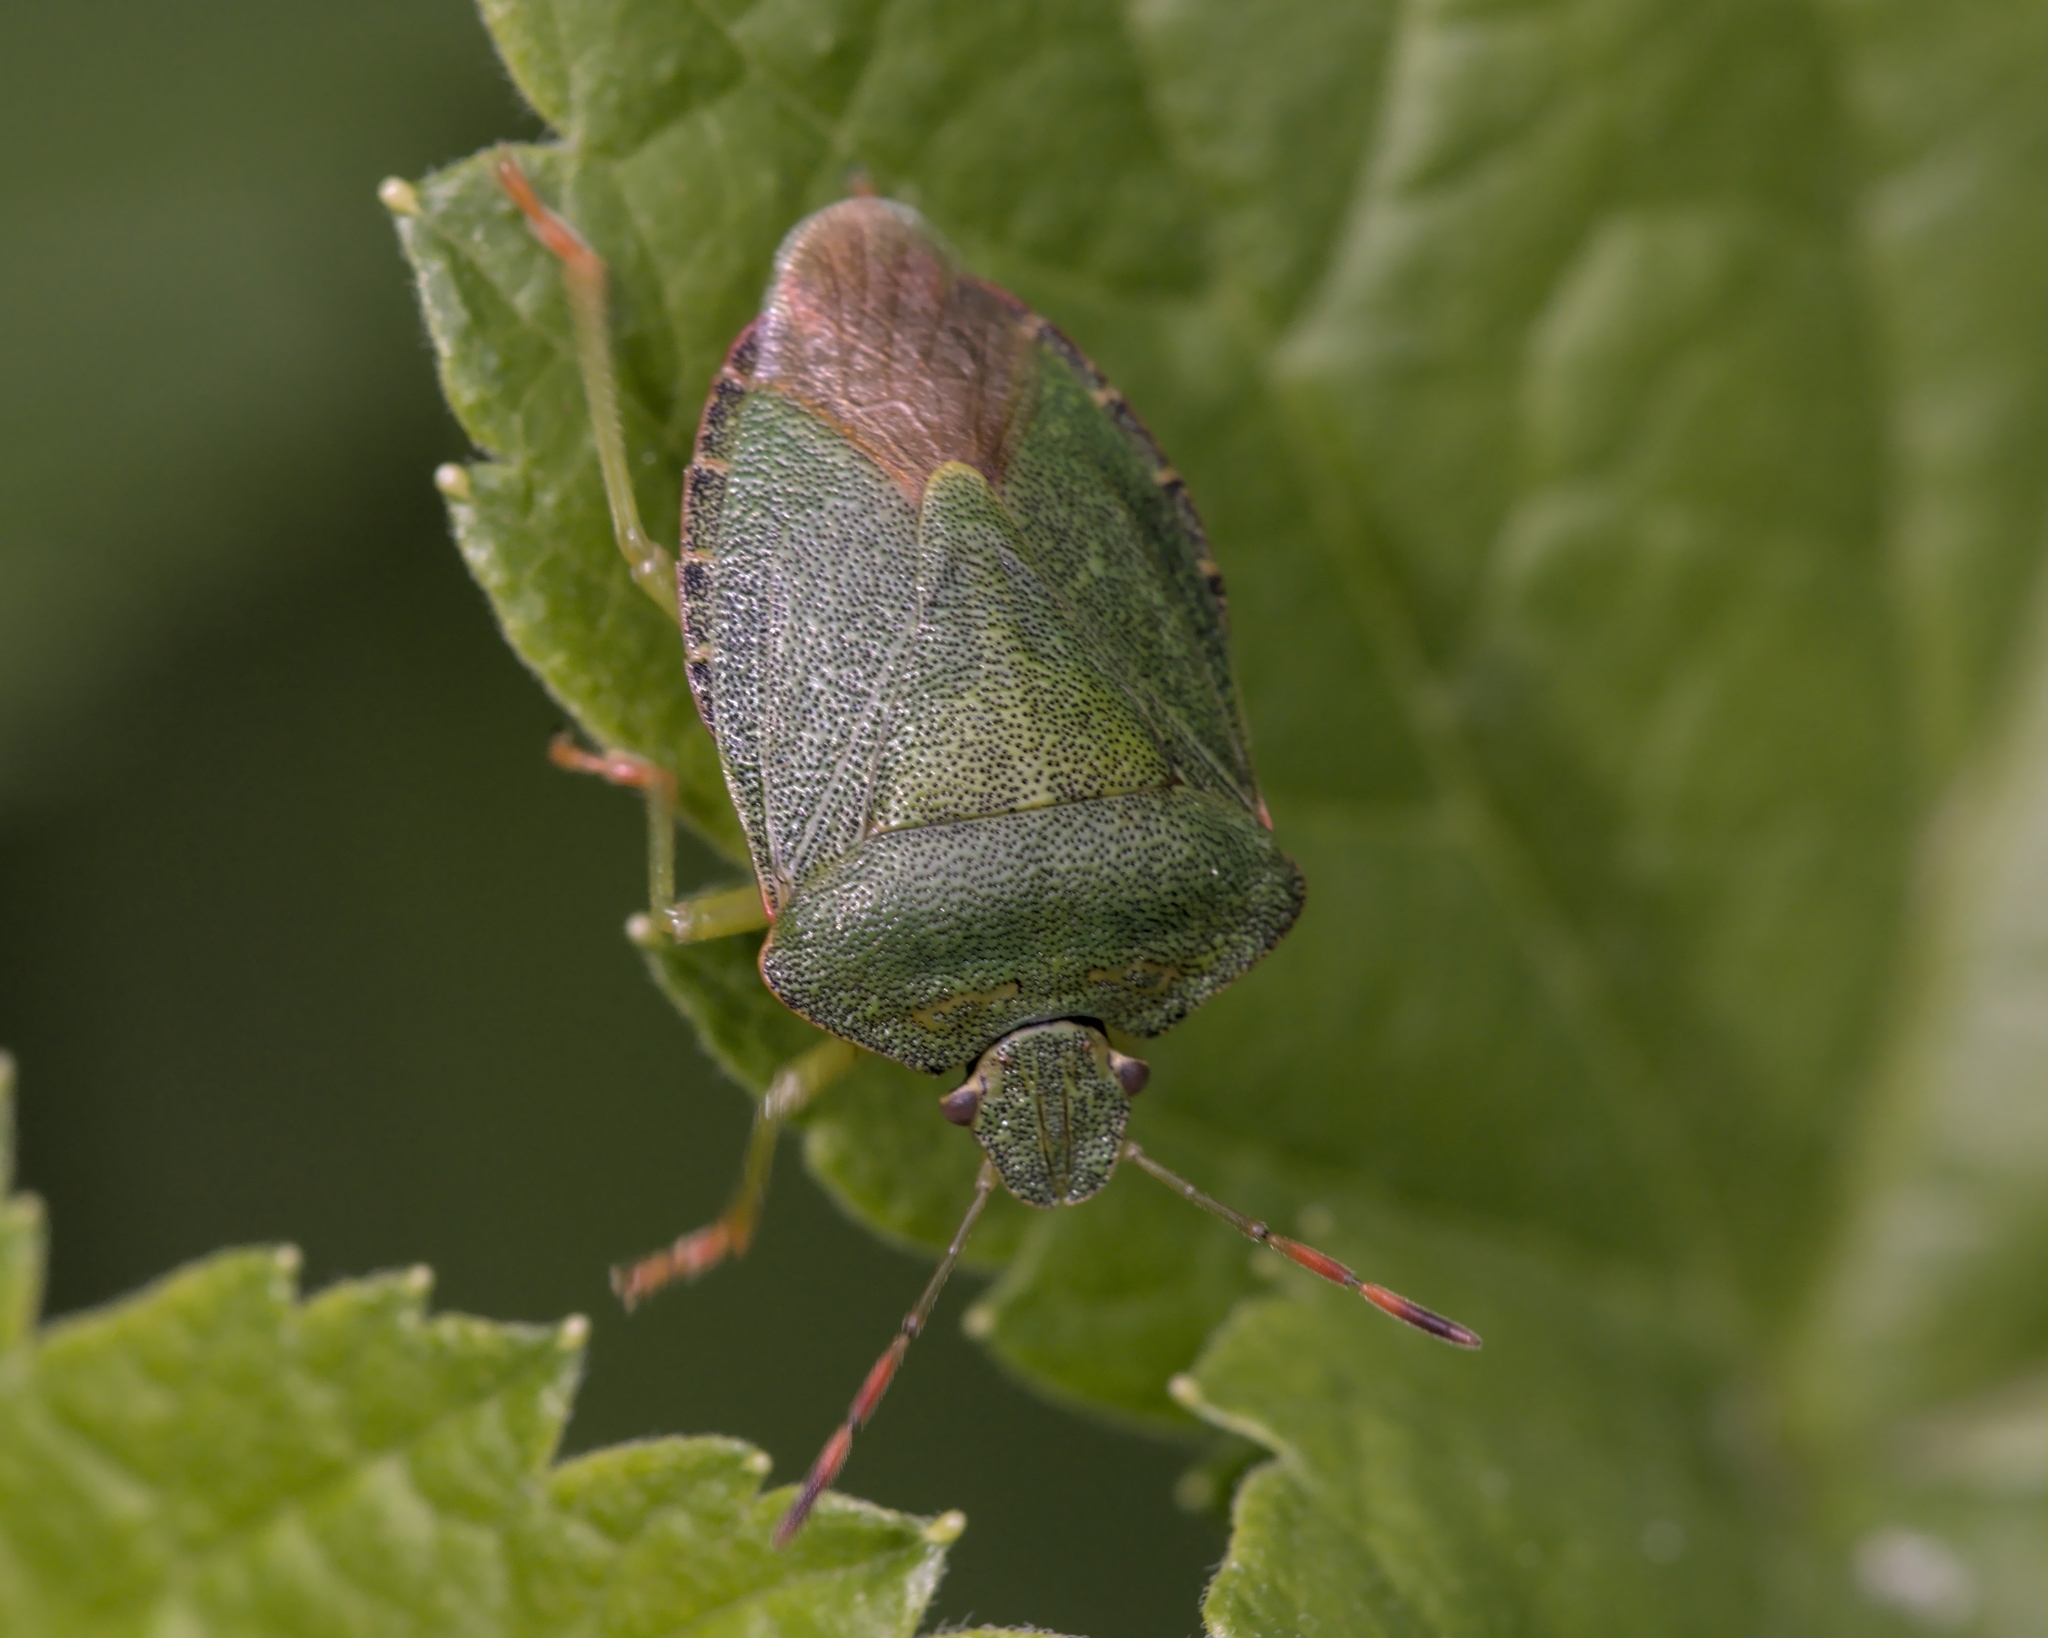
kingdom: Animalia
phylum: Arthropoda
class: Insecta
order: Hemiptera
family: Pentatomidae
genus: Palomena
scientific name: Palomena prasina
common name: Green shieldbug
